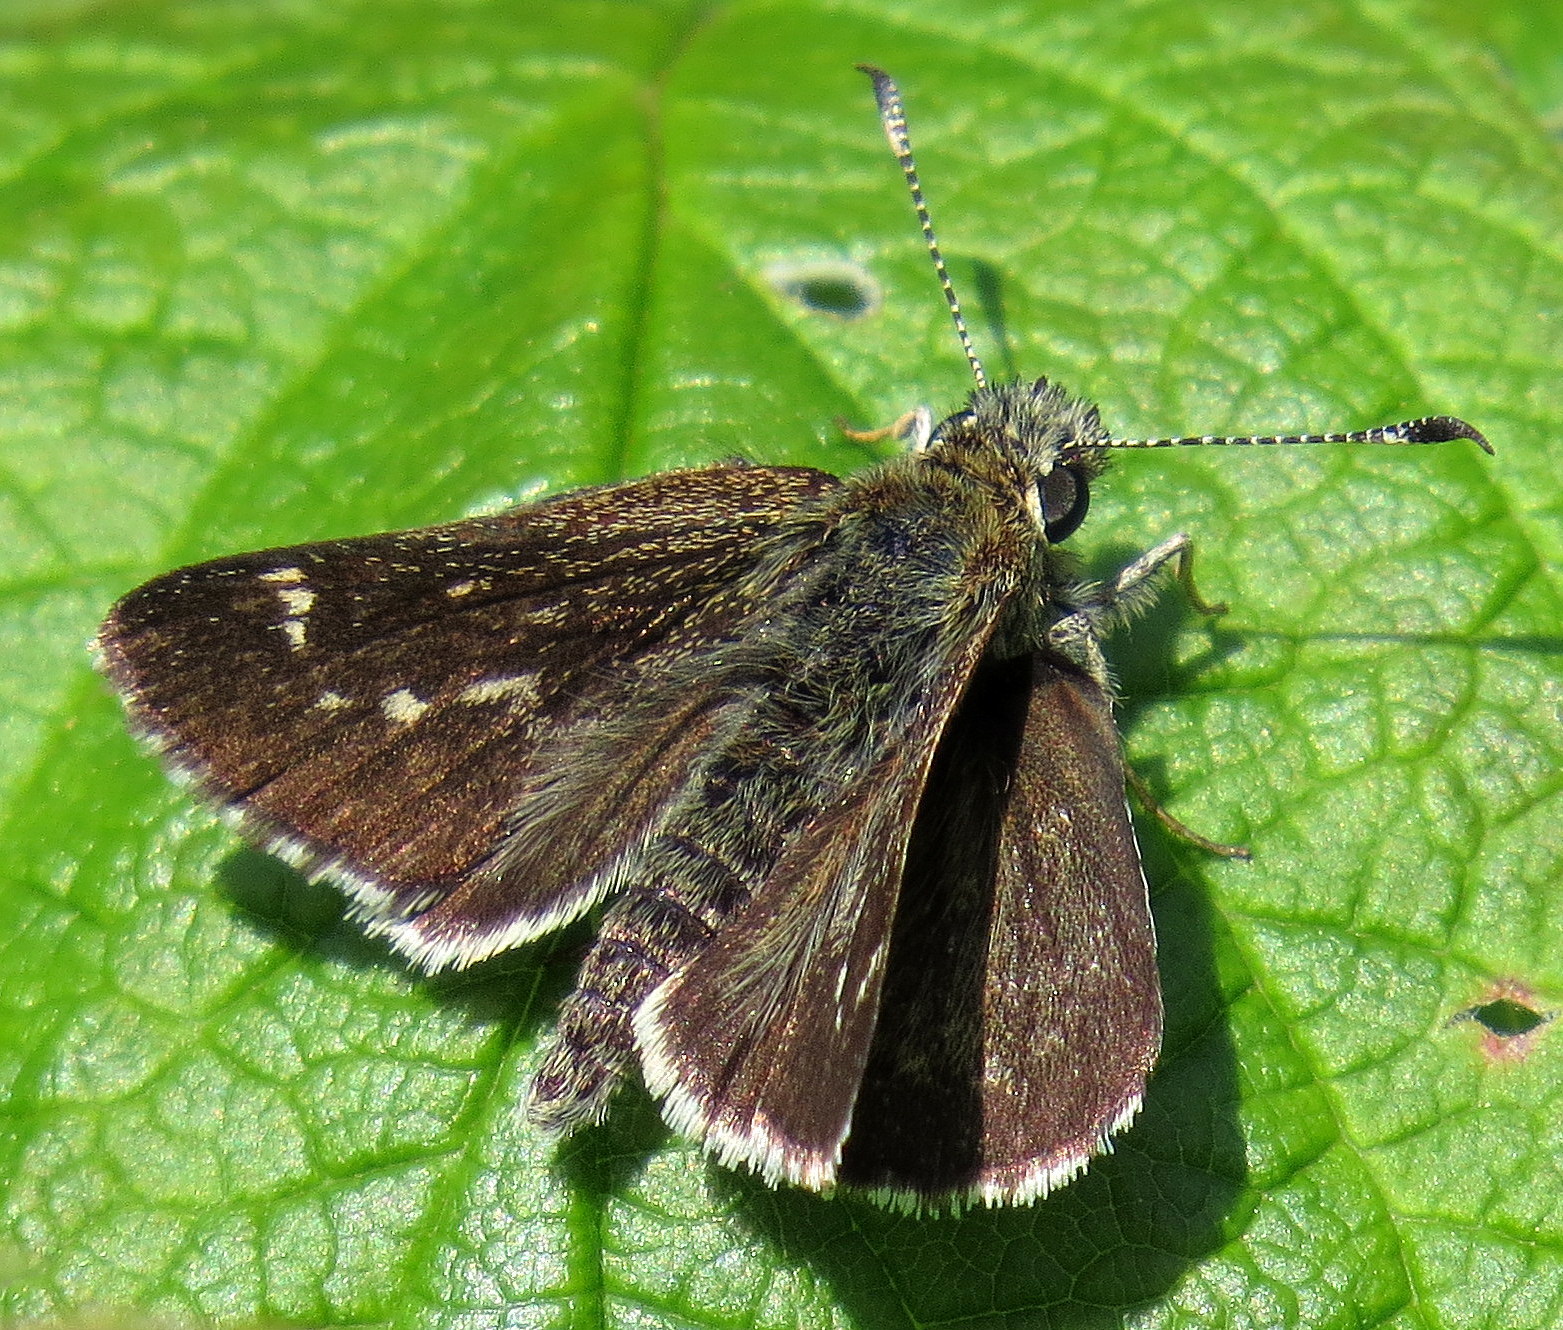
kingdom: Animalia
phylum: Arthropoda
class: Insecta
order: Lepidoptera
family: Hesperiidae
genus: Mastor
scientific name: Mastor hegon
